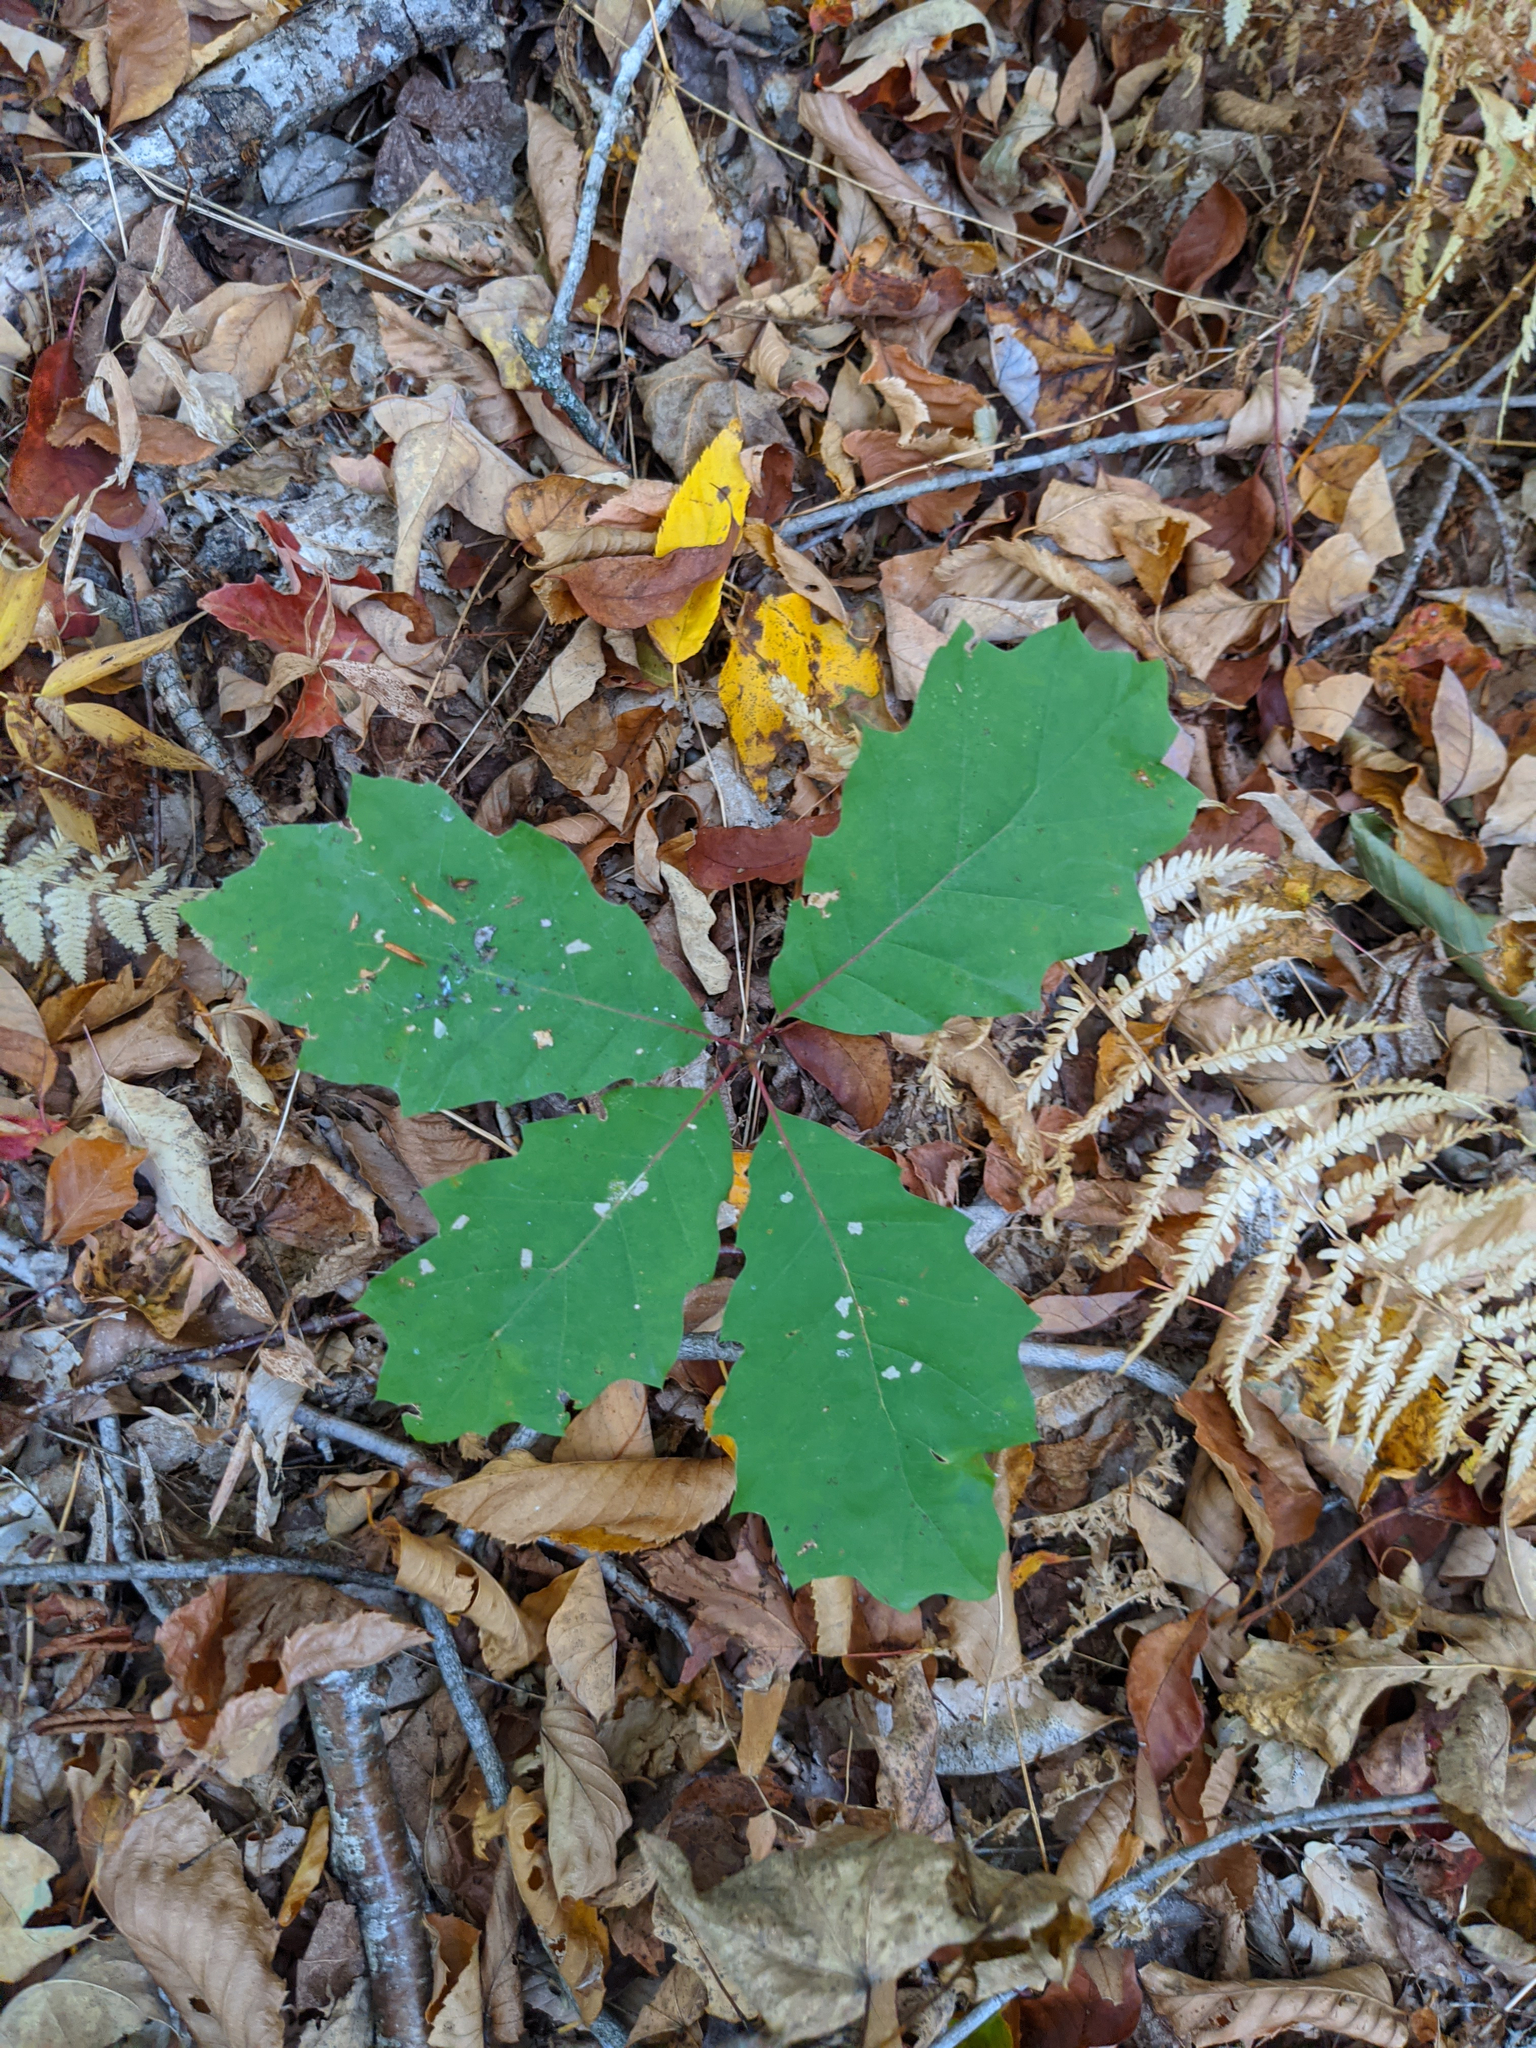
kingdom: Plantae
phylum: Tracheophyta
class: Magnoliopsida
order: Fagales
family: Fagaceae
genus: Quercus
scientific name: Quercus rubra
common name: Red oak
